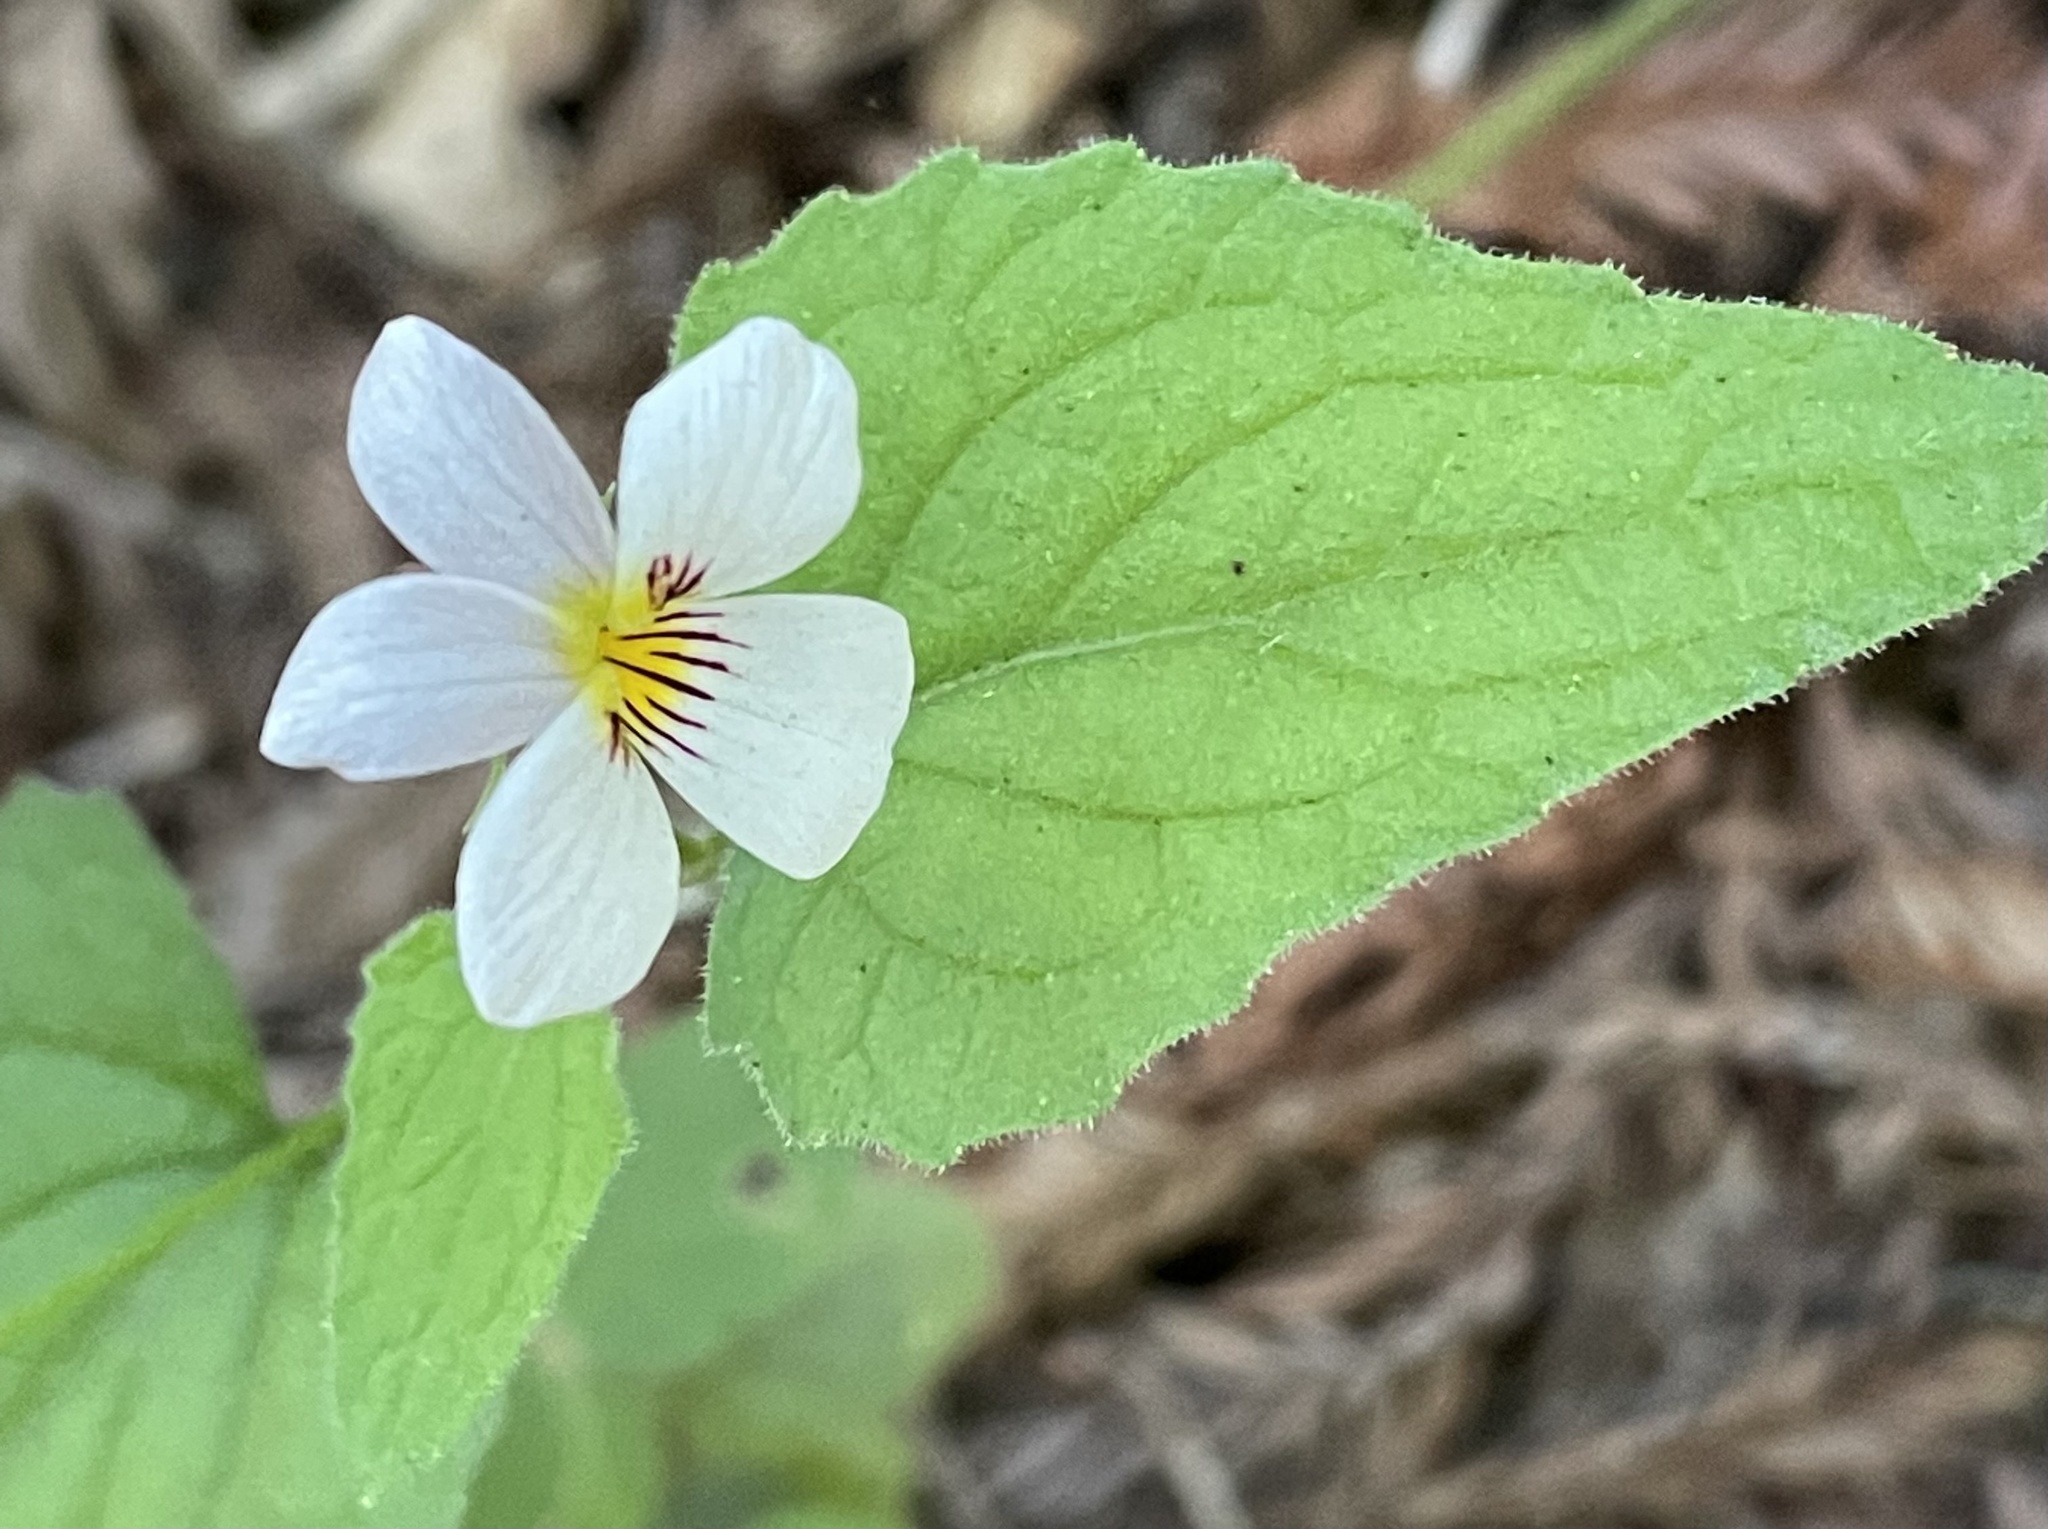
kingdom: Plantae
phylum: Tracheophyta
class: Magnoliopsida
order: Malpighiales
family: Violaceae
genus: Viola
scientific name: Viola ocellata
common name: Western heart's ease
